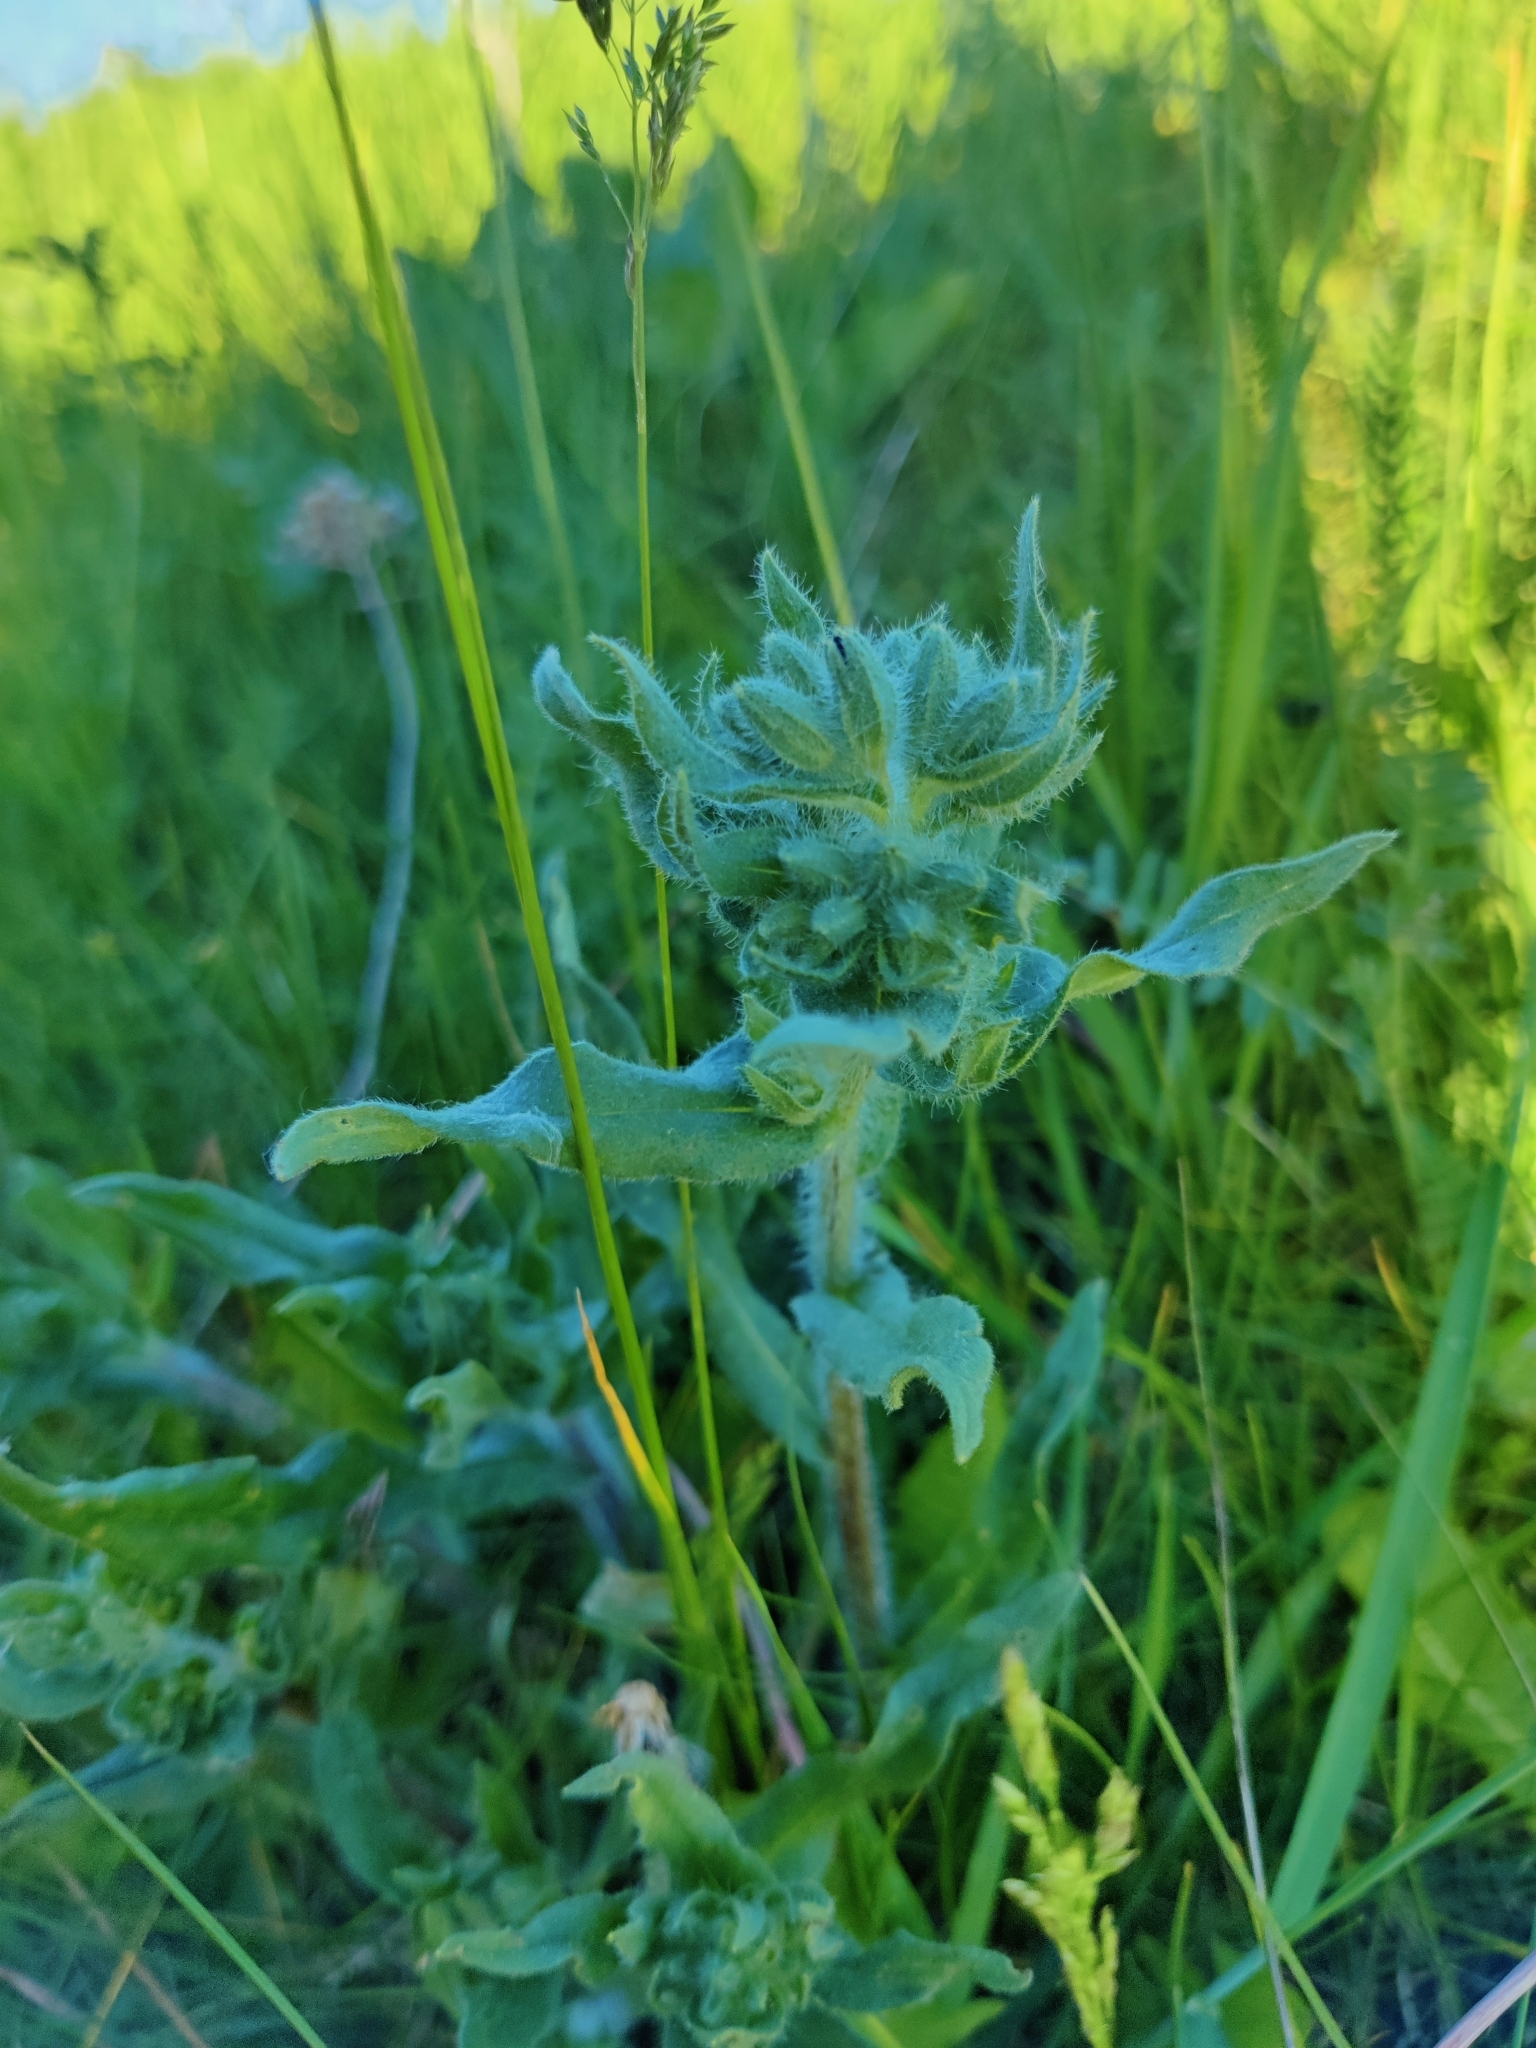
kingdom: Plantae
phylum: Tracheophyta
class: Magnoliopsida
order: Boraginales
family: Boraginaceae
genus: Nonea
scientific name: Nonea pulla
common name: Brown nonea
